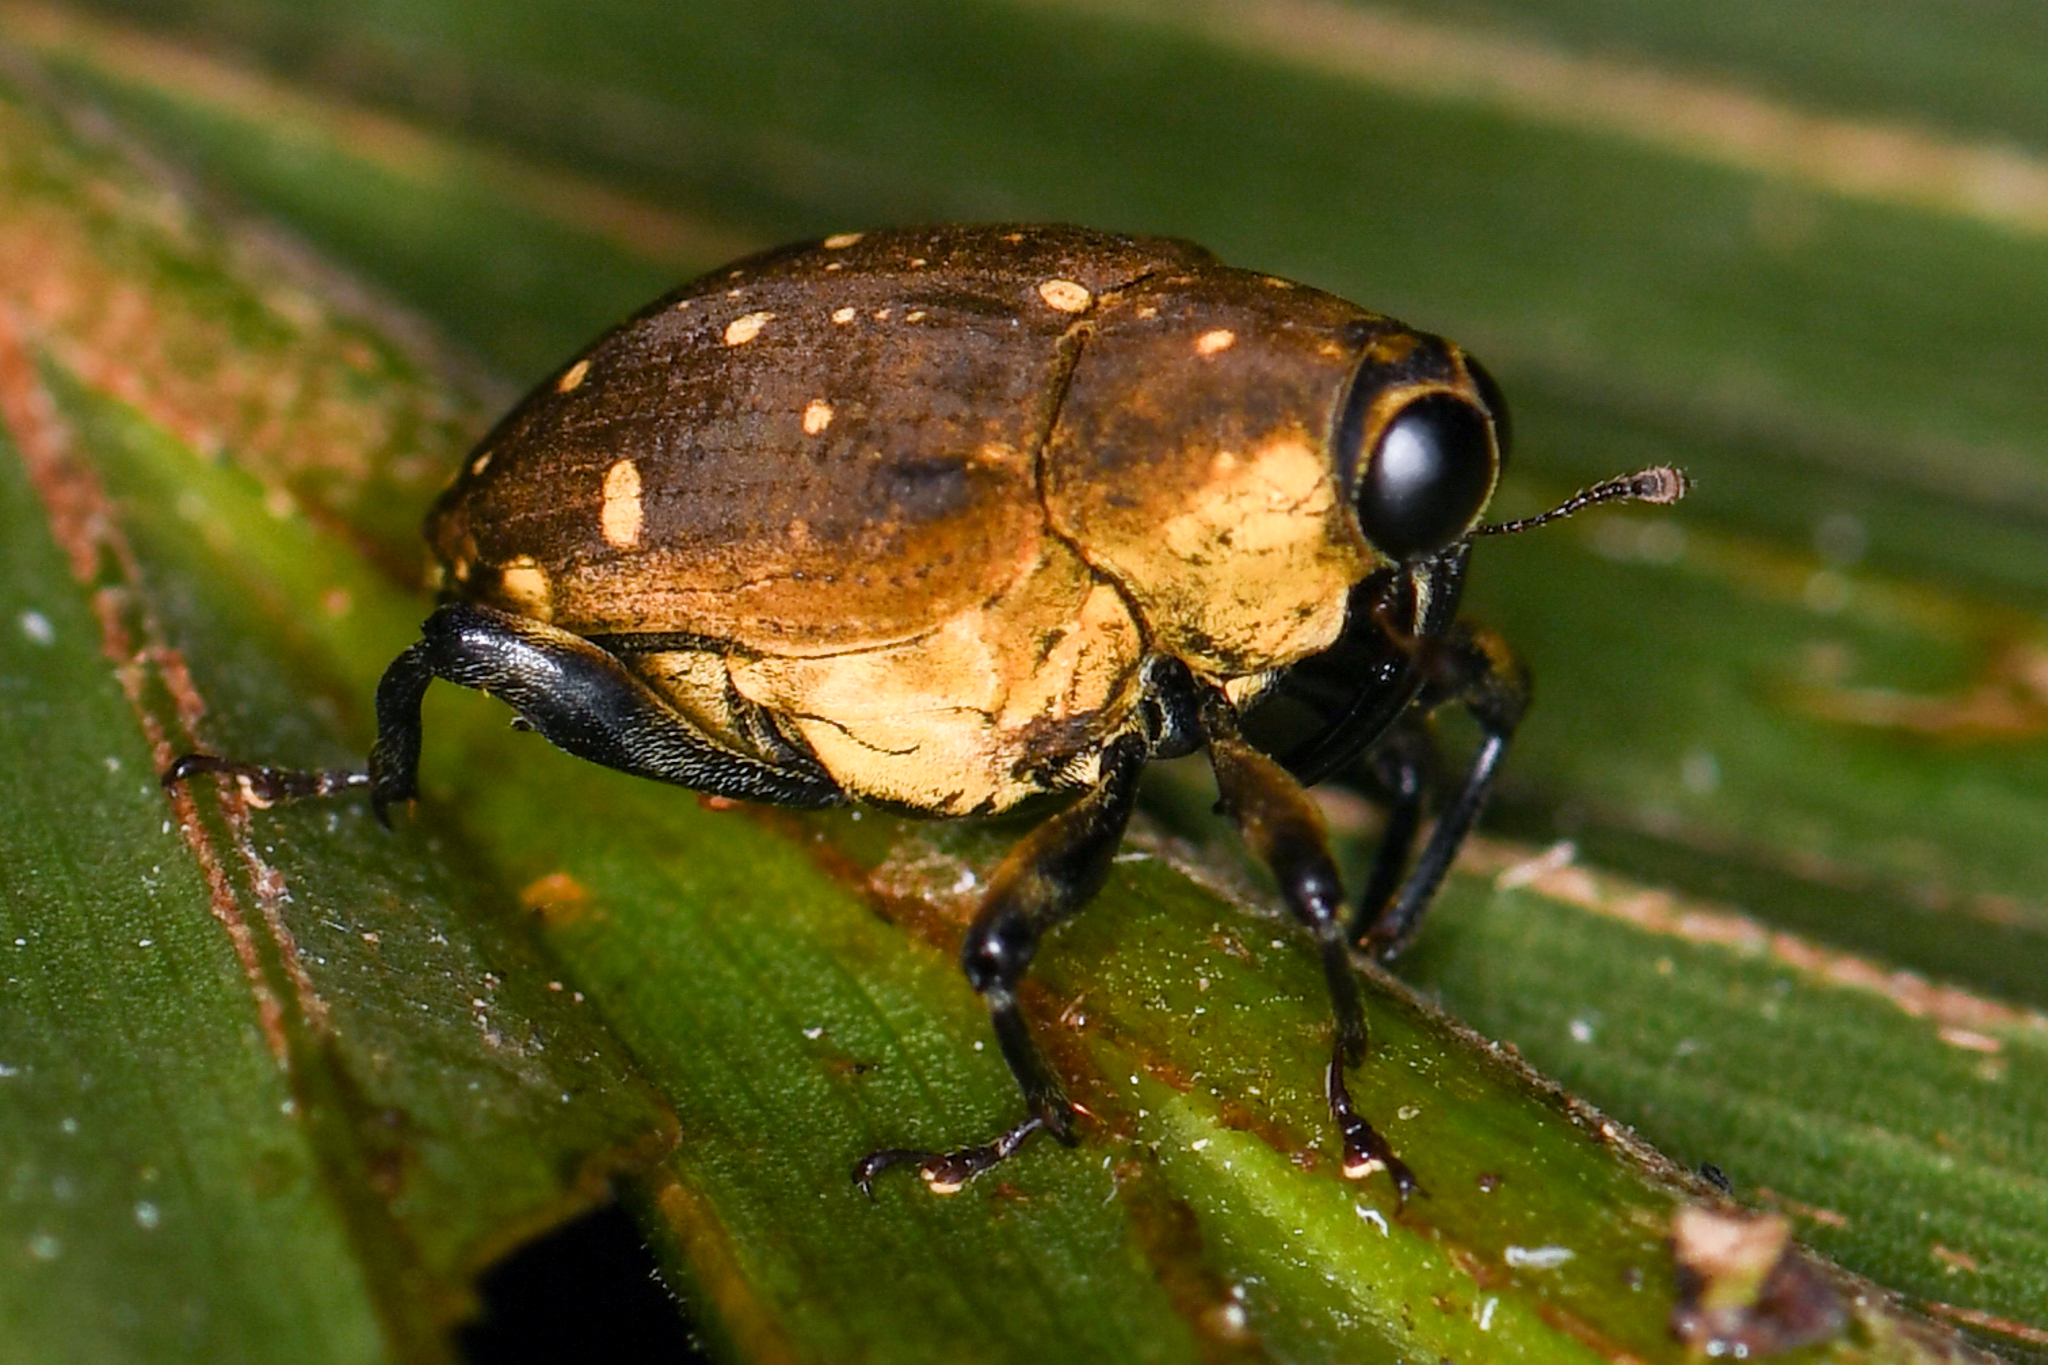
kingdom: Animalia
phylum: Arthropoda
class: Insecta
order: Coleoptera
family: Curculionidae
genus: Piazurus
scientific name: Piazurus sulphuriventris
